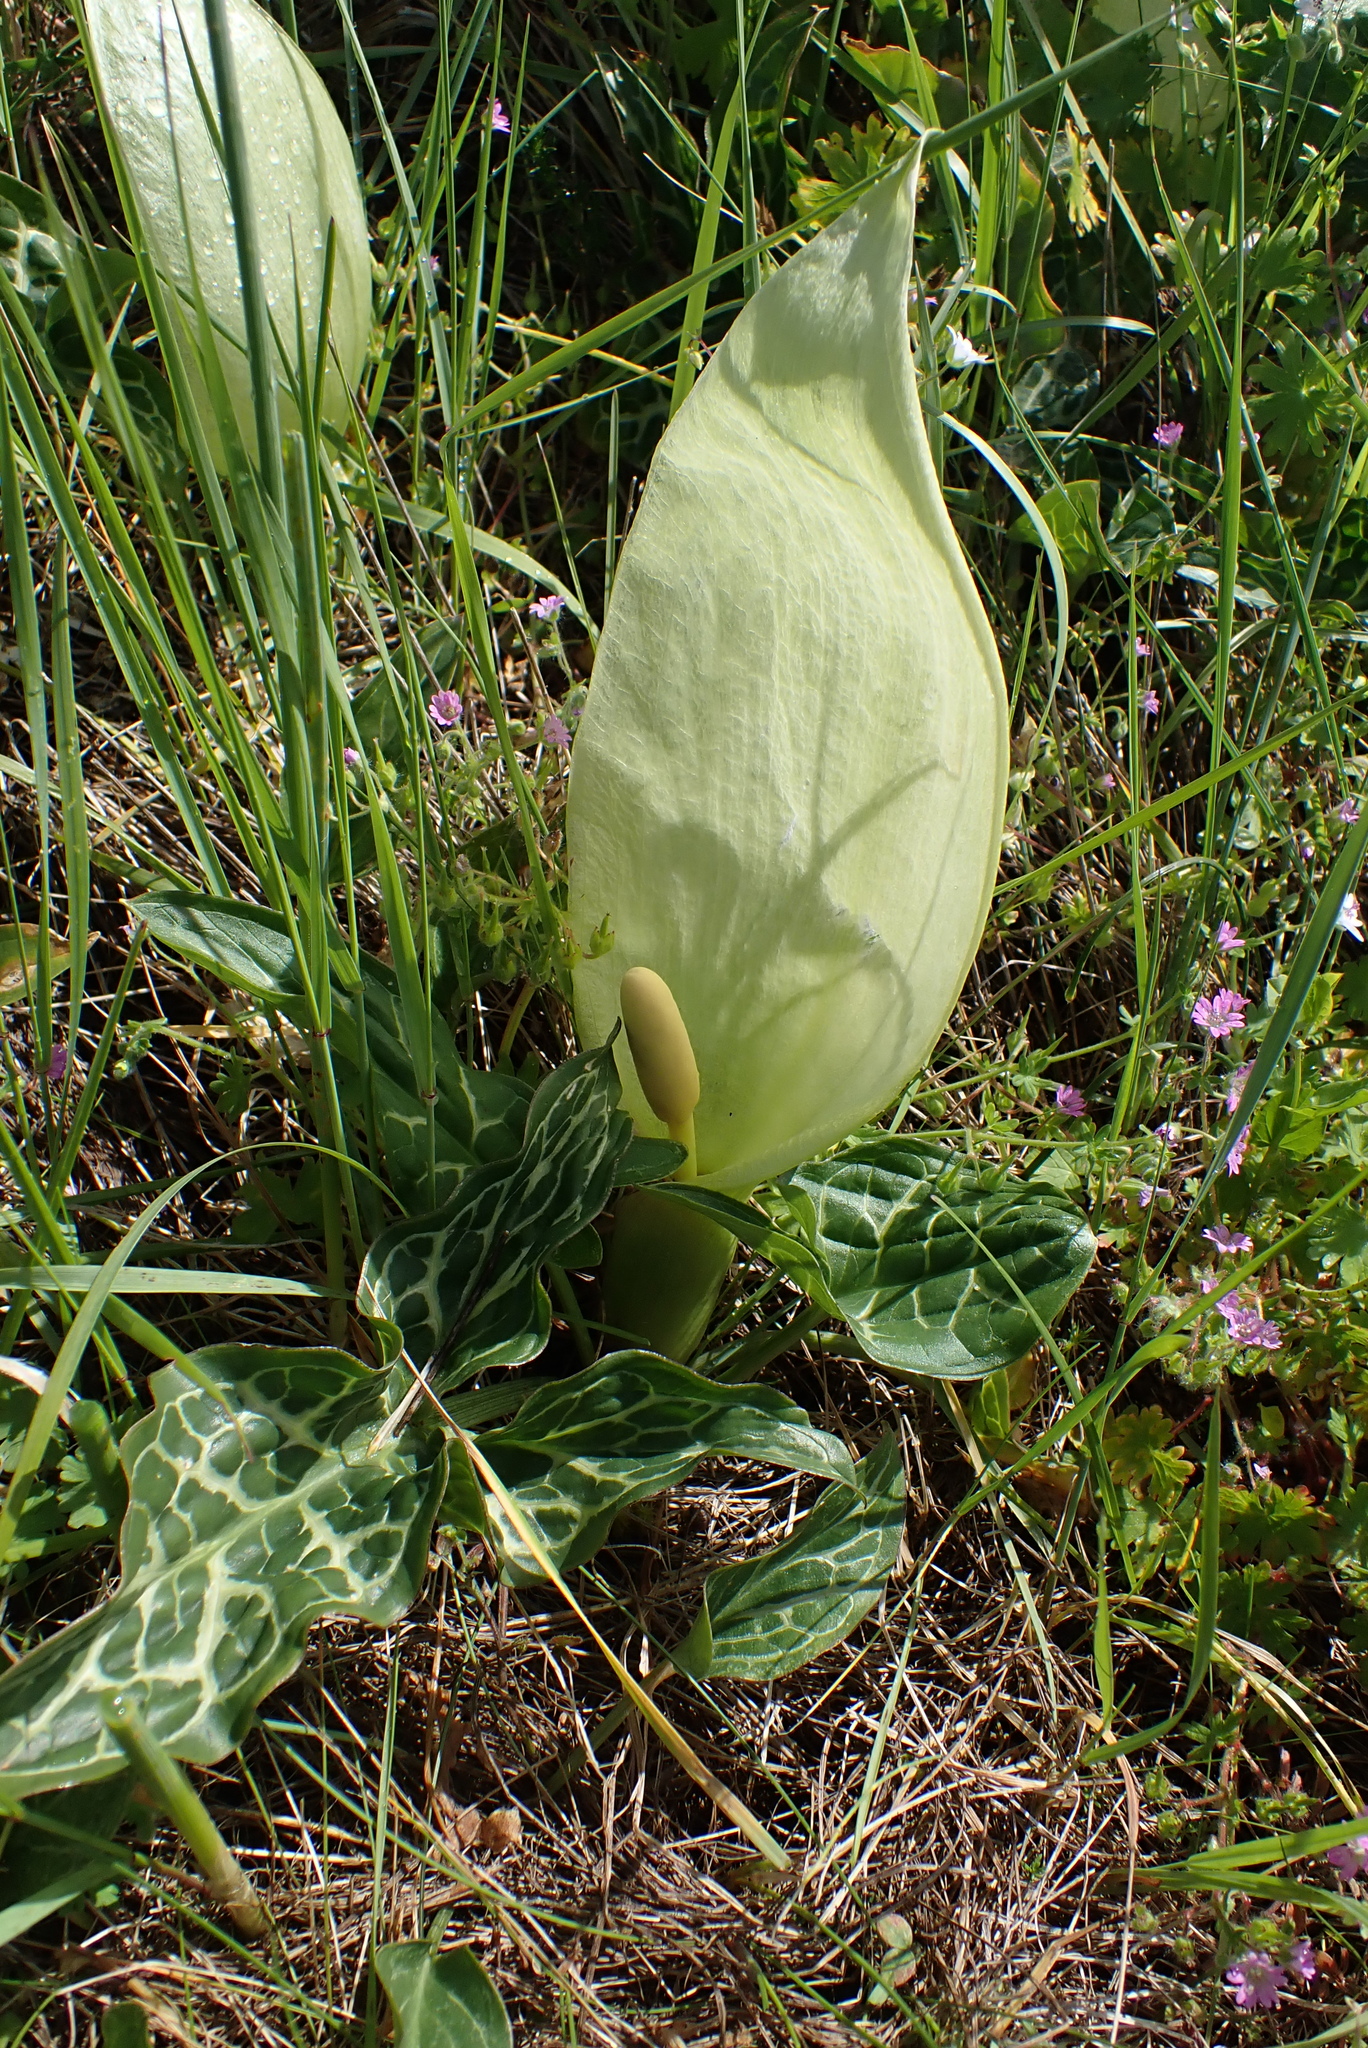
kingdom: Plantae
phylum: Tracheophyta
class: Liliopsida
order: Alismatales
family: Araceae
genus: Arum
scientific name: Arum italicum
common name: Italian lords-and-ladies
